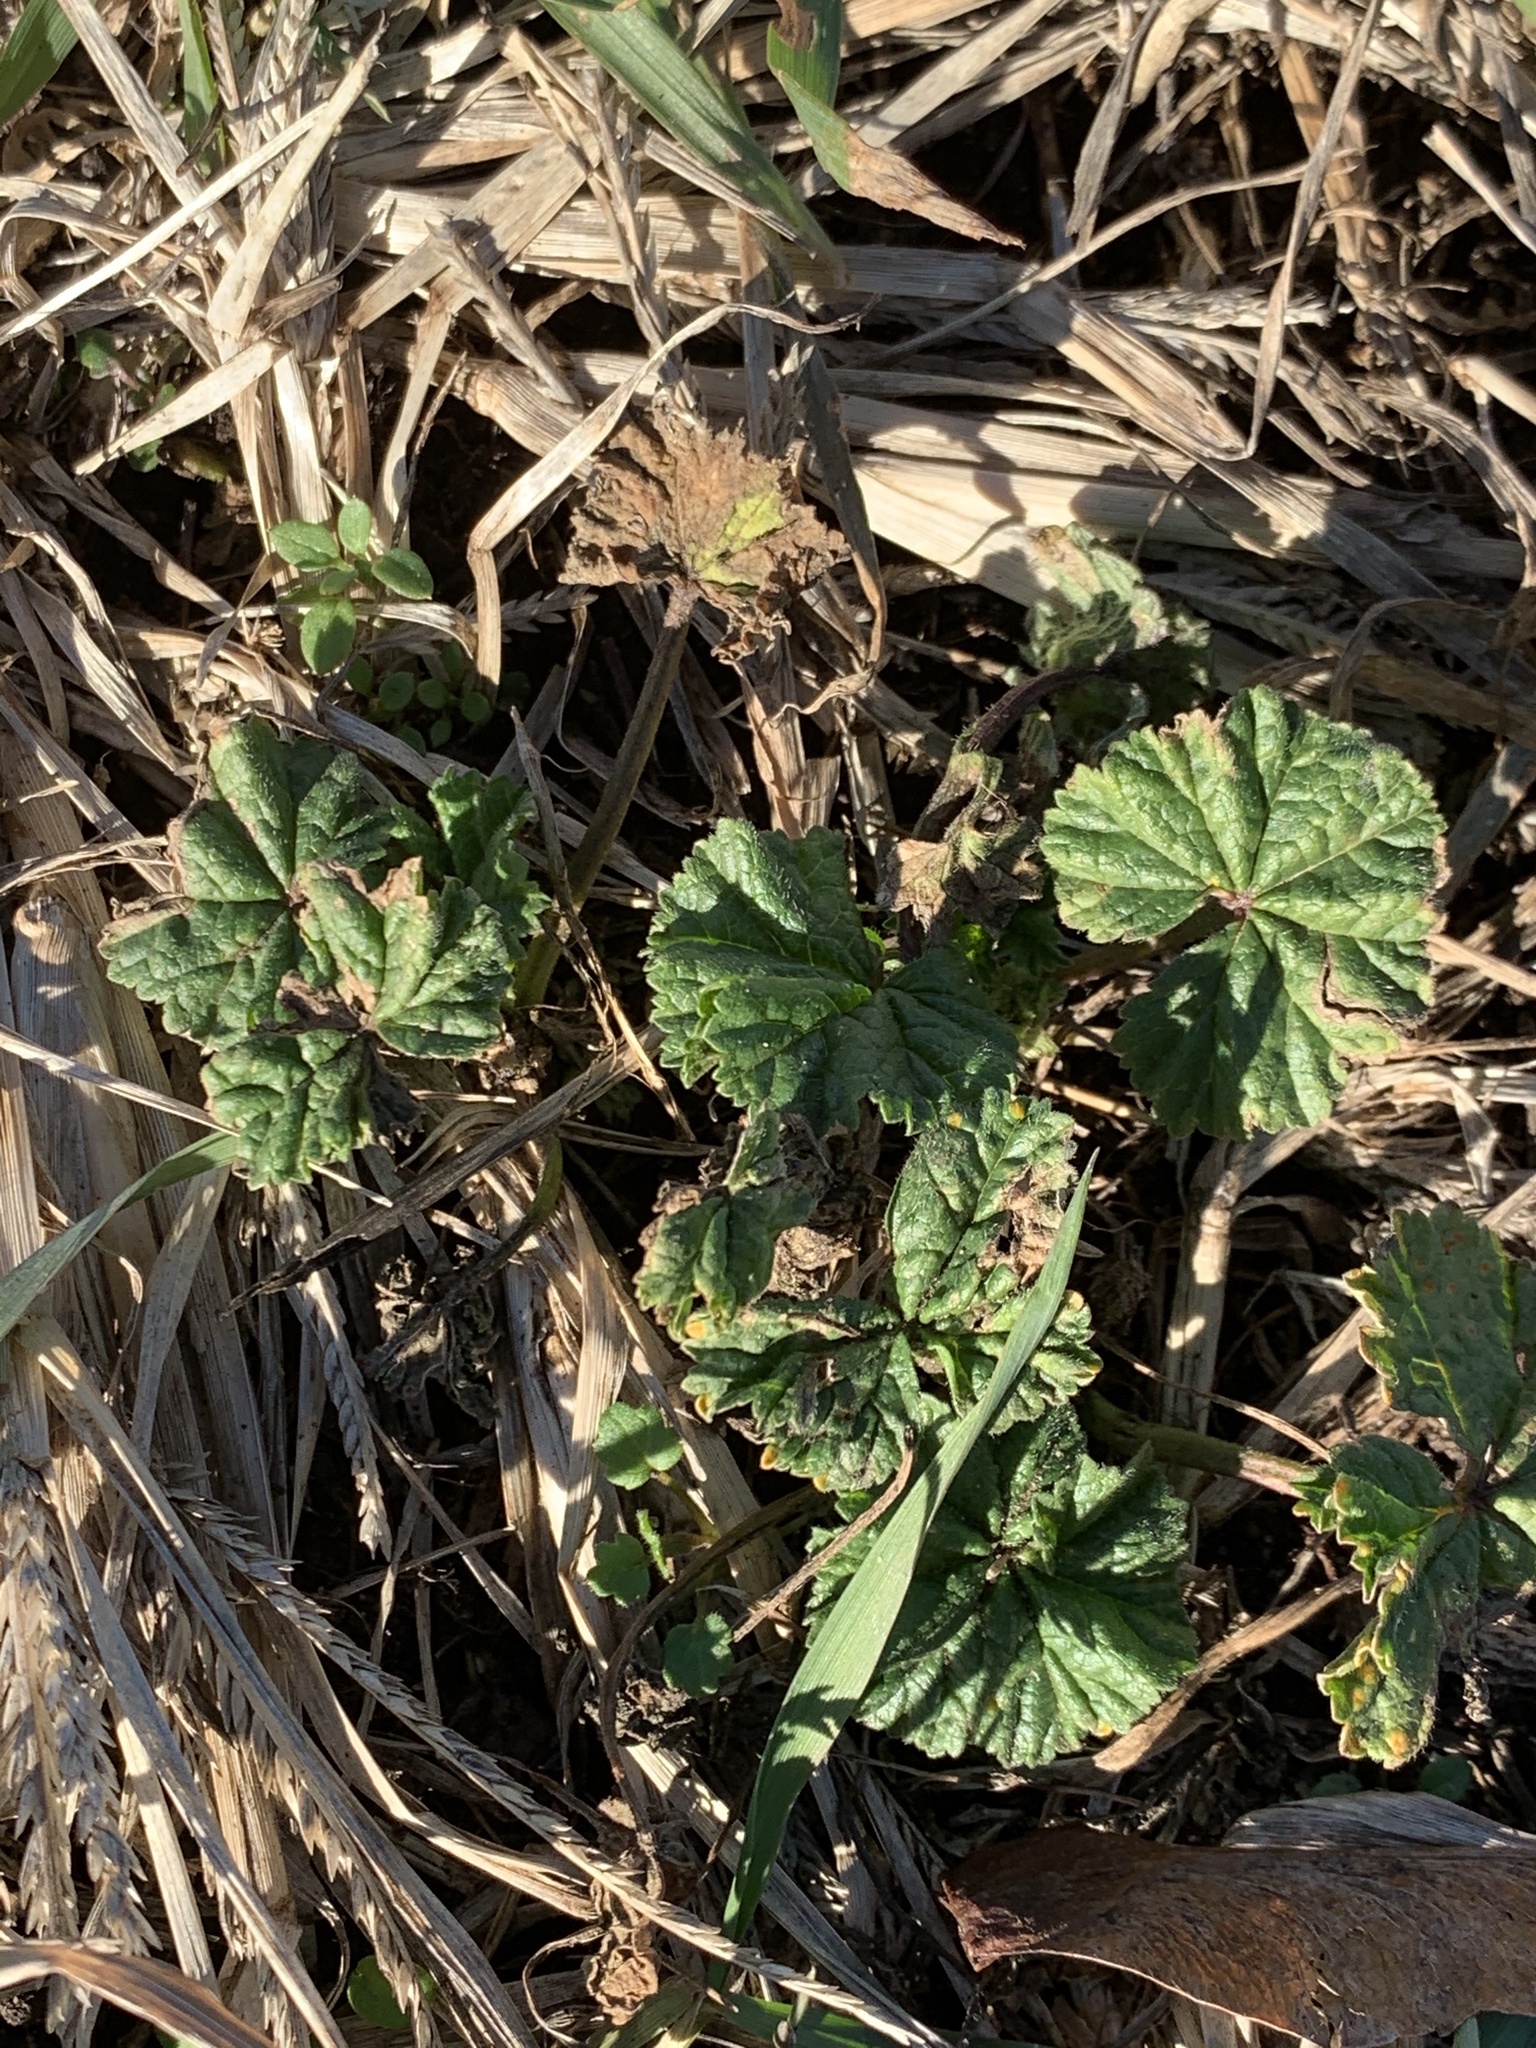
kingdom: Plantae
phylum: Tracheophyta
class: Magnoliopsida
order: Malvales
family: Malvaceae
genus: Malva
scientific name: Malva neglecta
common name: Common mallow
